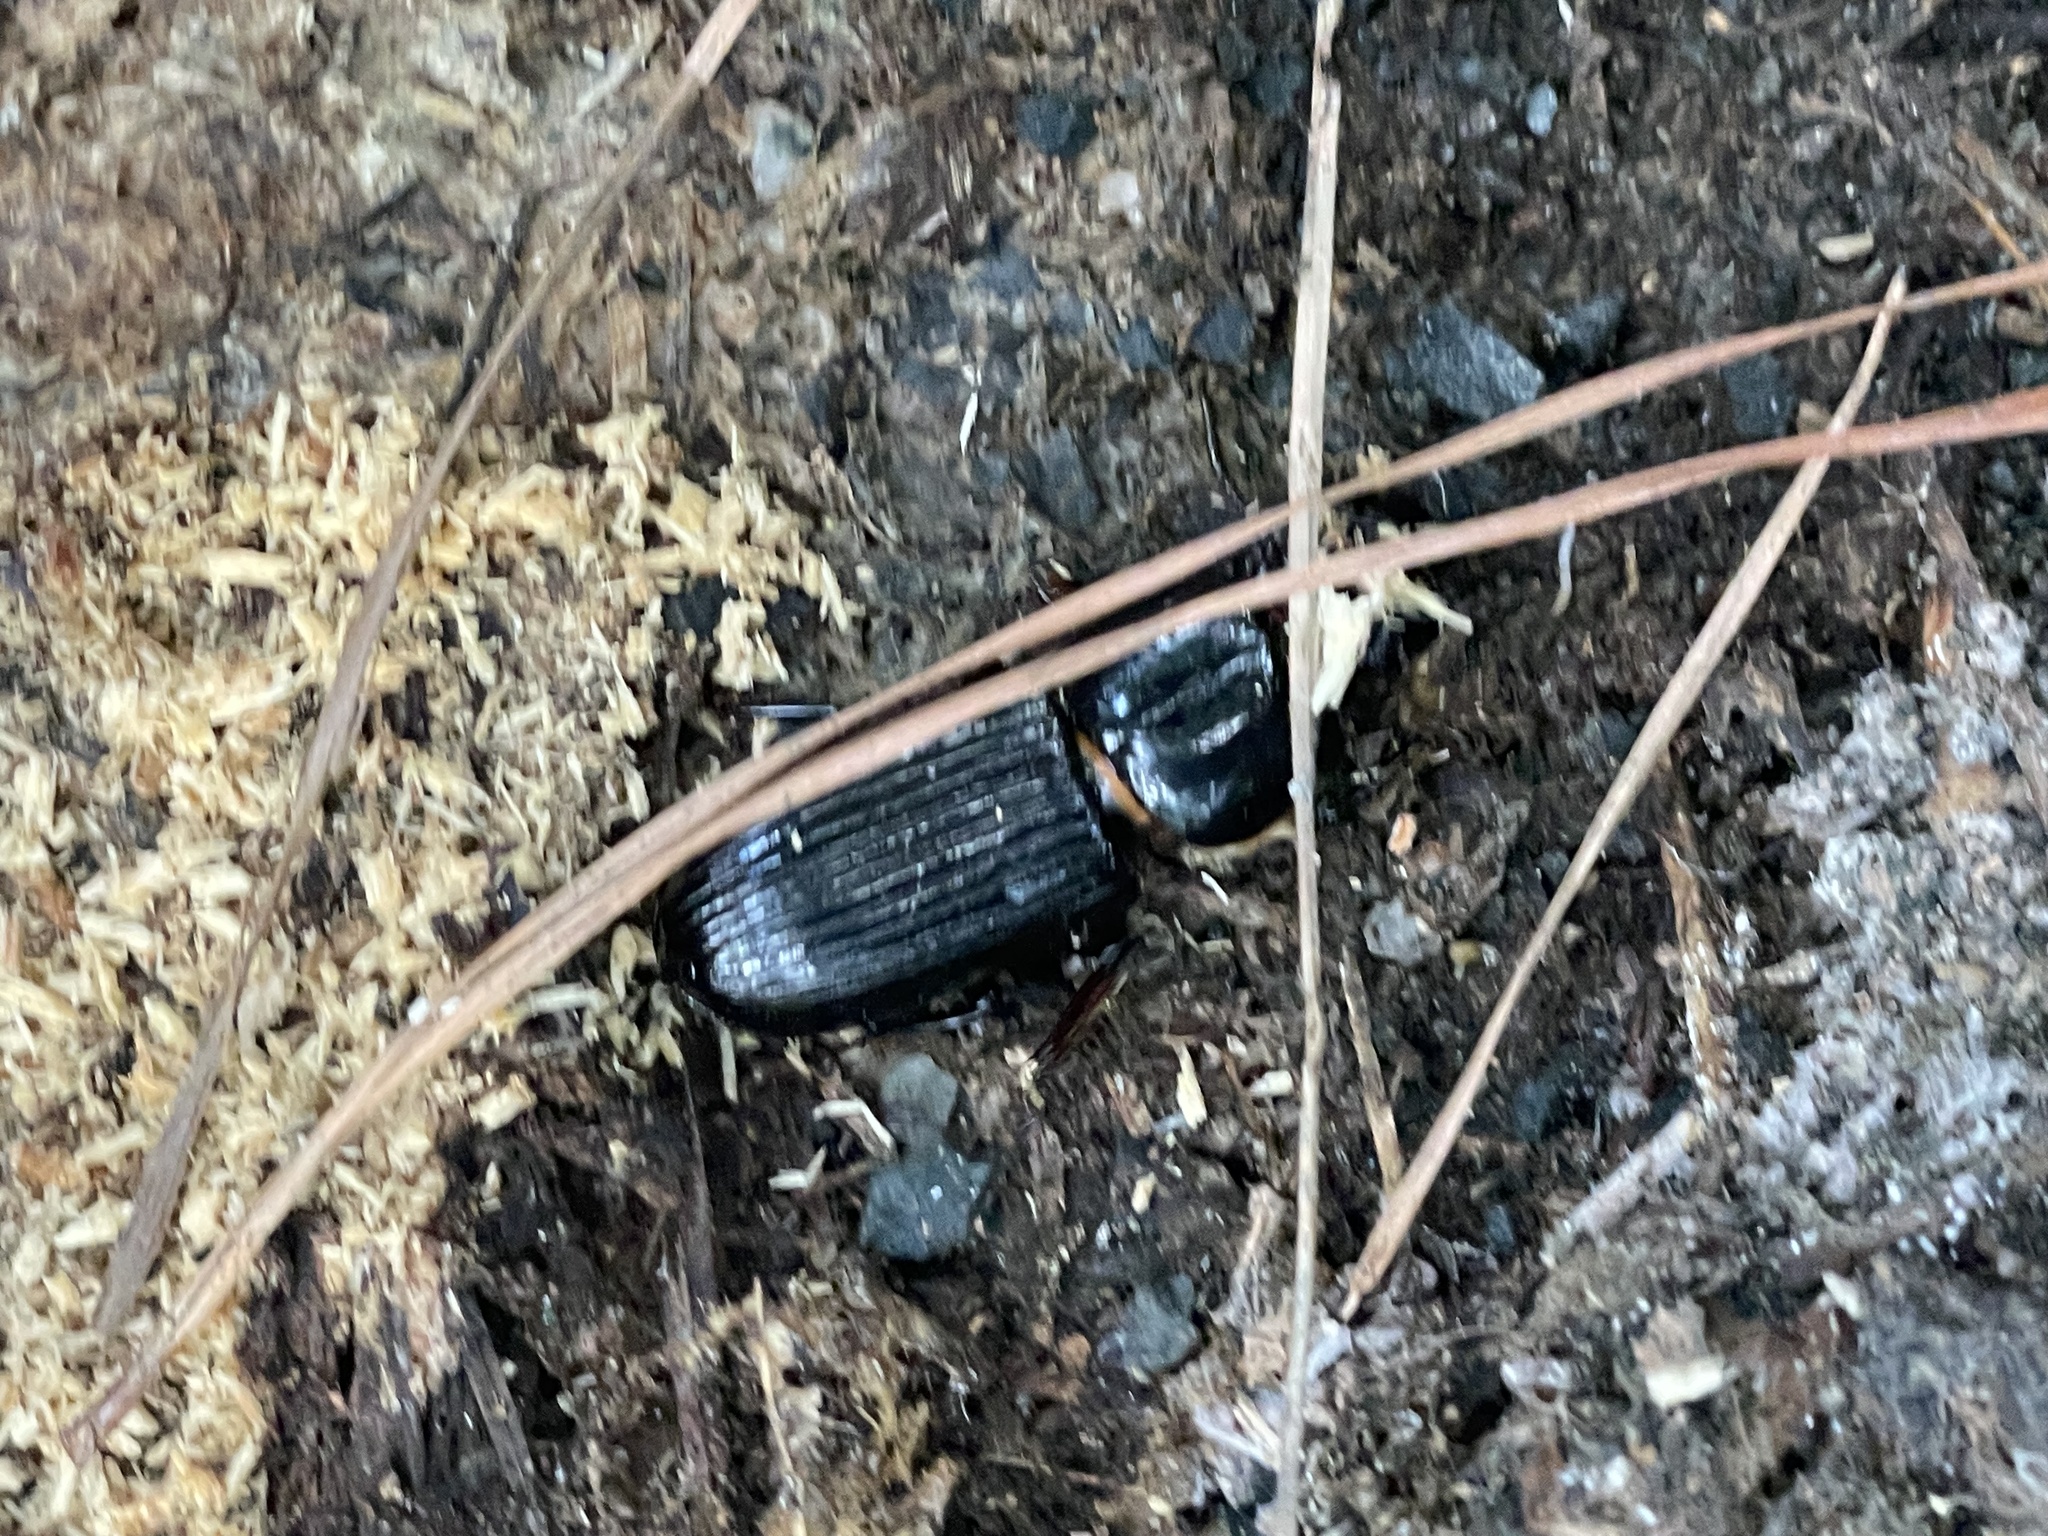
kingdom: Animalia
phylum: Arthropoda
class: Insecta
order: Coleoptera
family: Passalidae
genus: Odontotaenius
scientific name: Odontotaenius disjunctus
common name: Patent leather beetle
